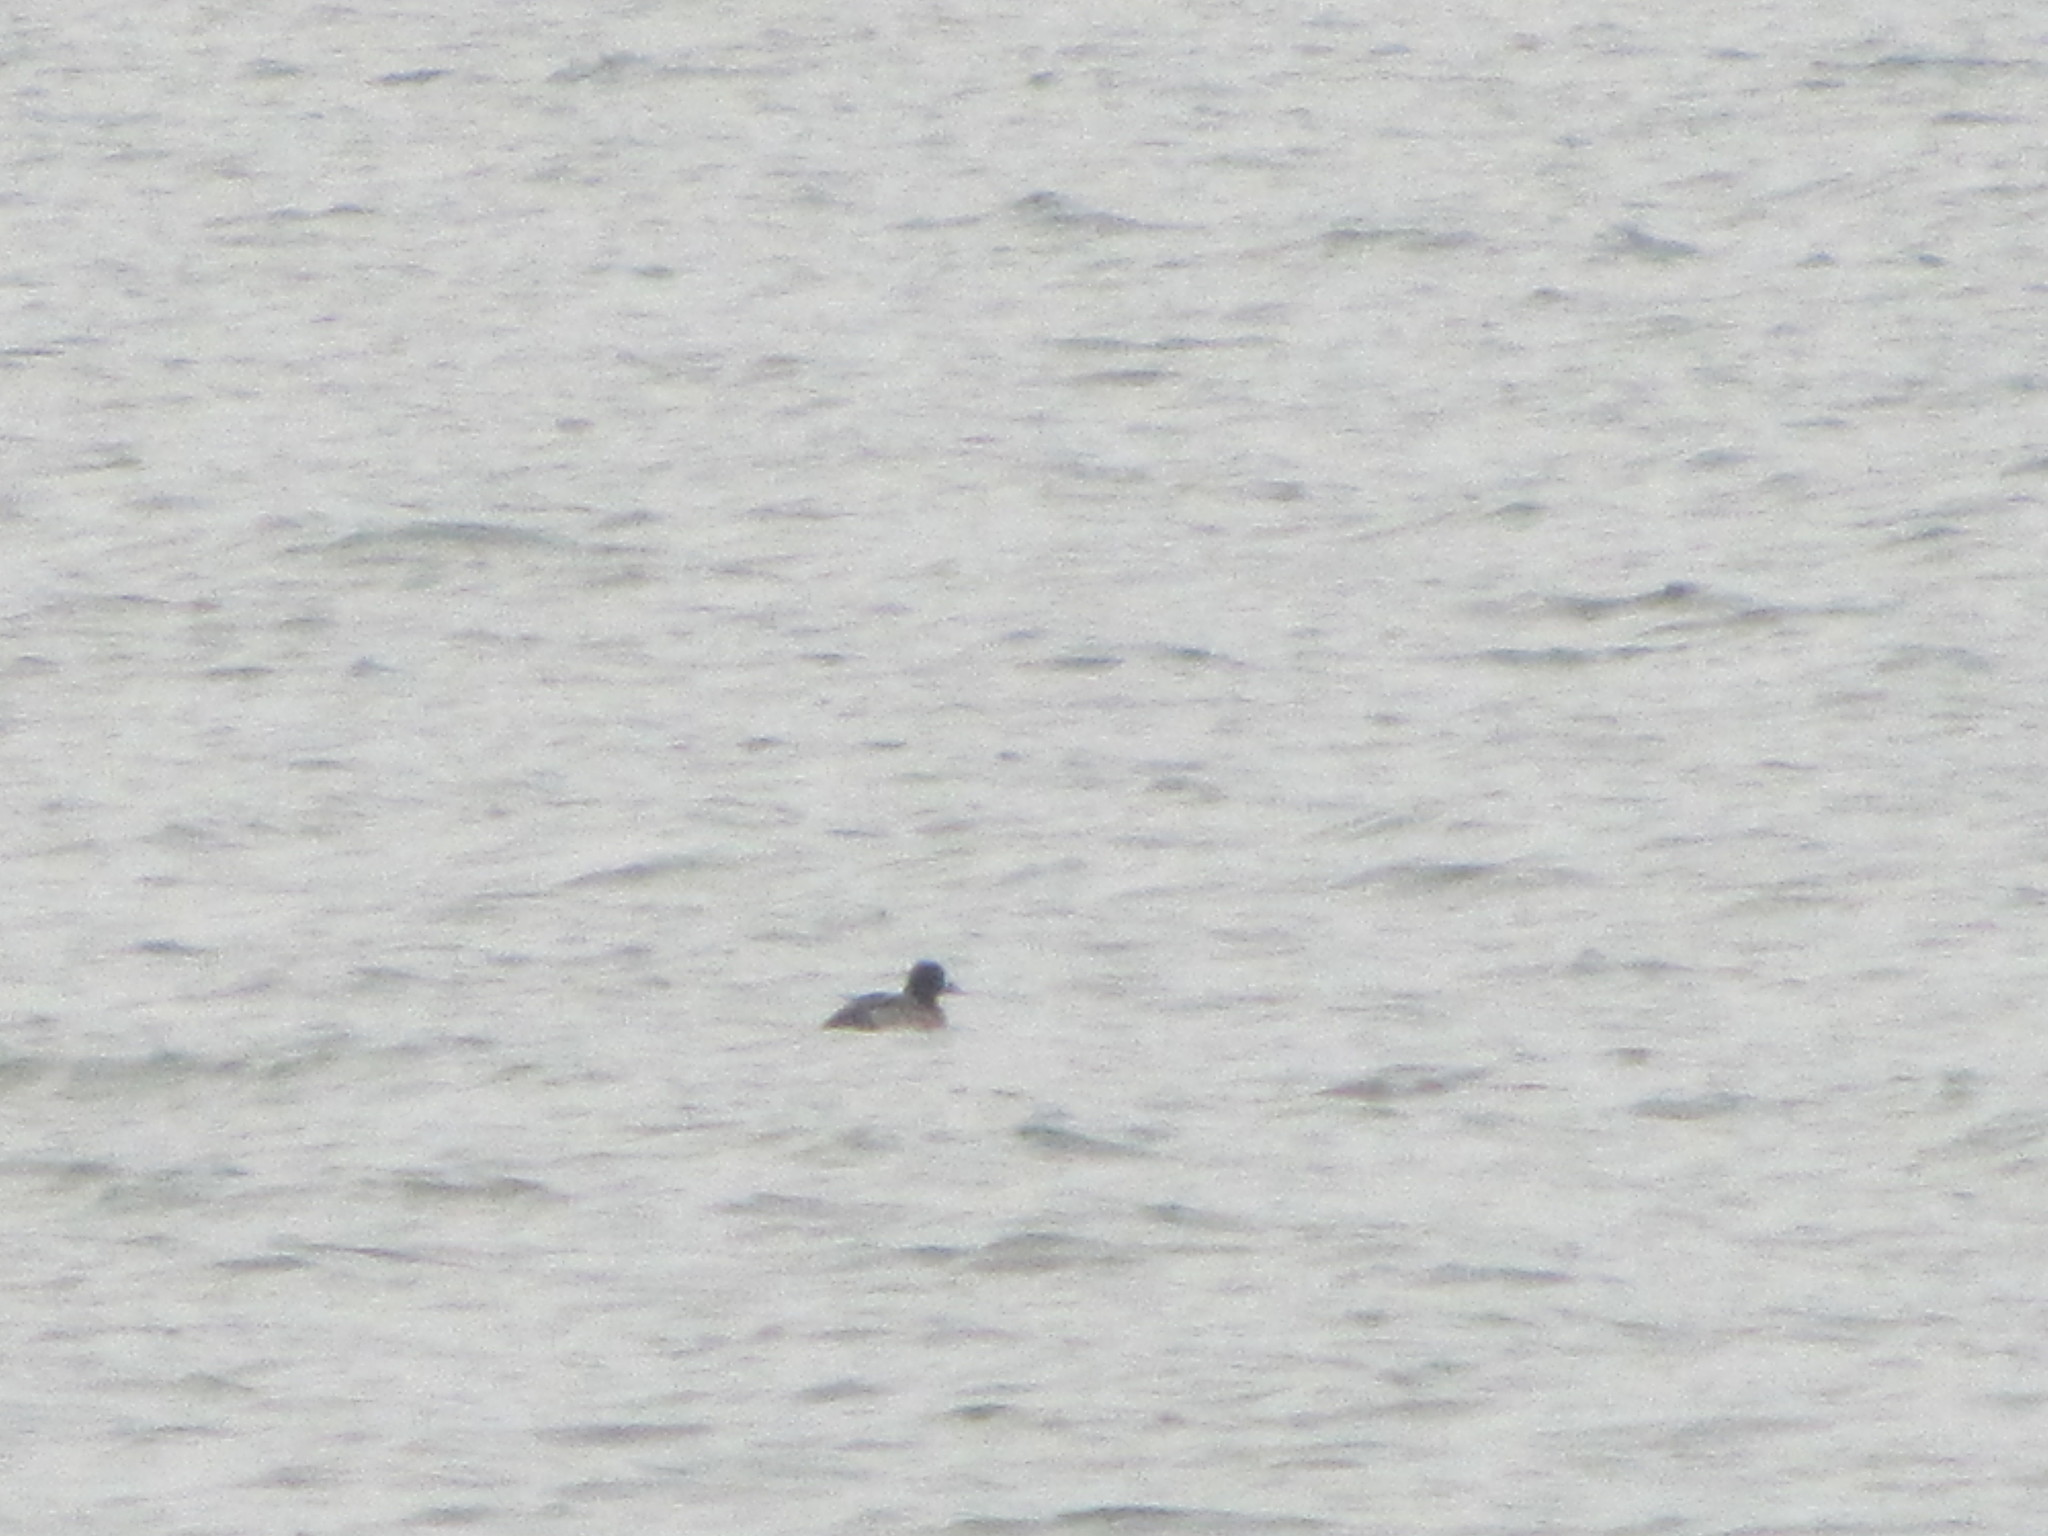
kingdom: Animalia
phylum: Chordata
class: Aves
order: Anseriformes
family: Anatidae
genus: Aythya
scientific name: Aythya marila
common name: Greater scaup
